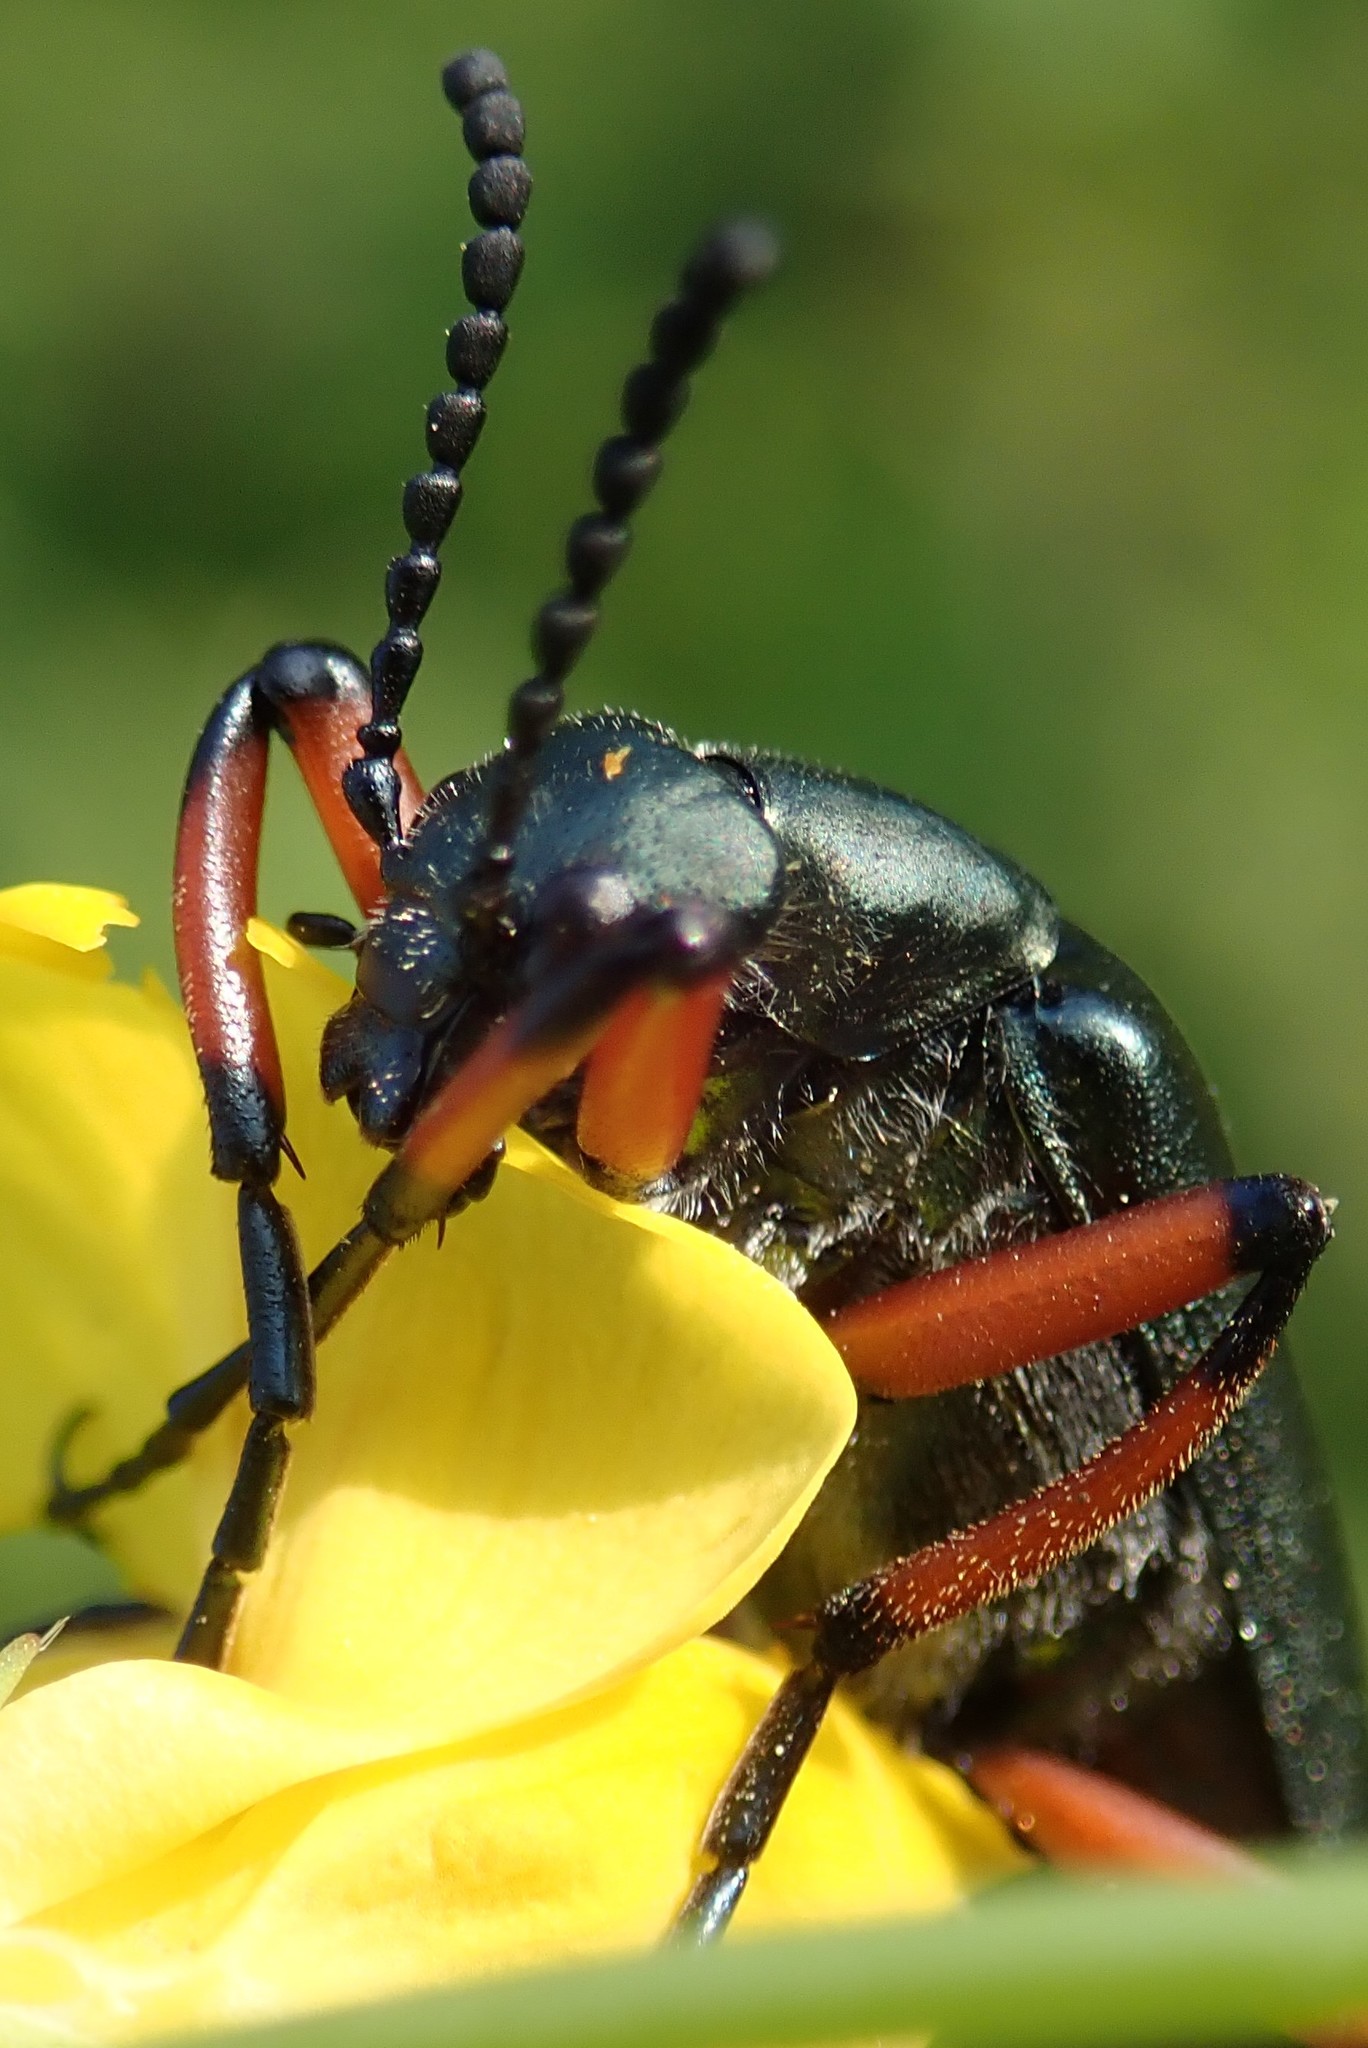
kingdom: Animalia
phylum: Arthropoda
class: Insecta
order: Coleoptera
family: Meloidae
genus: Lytta
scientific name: Lytta sayi
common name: Say's blister beetle
